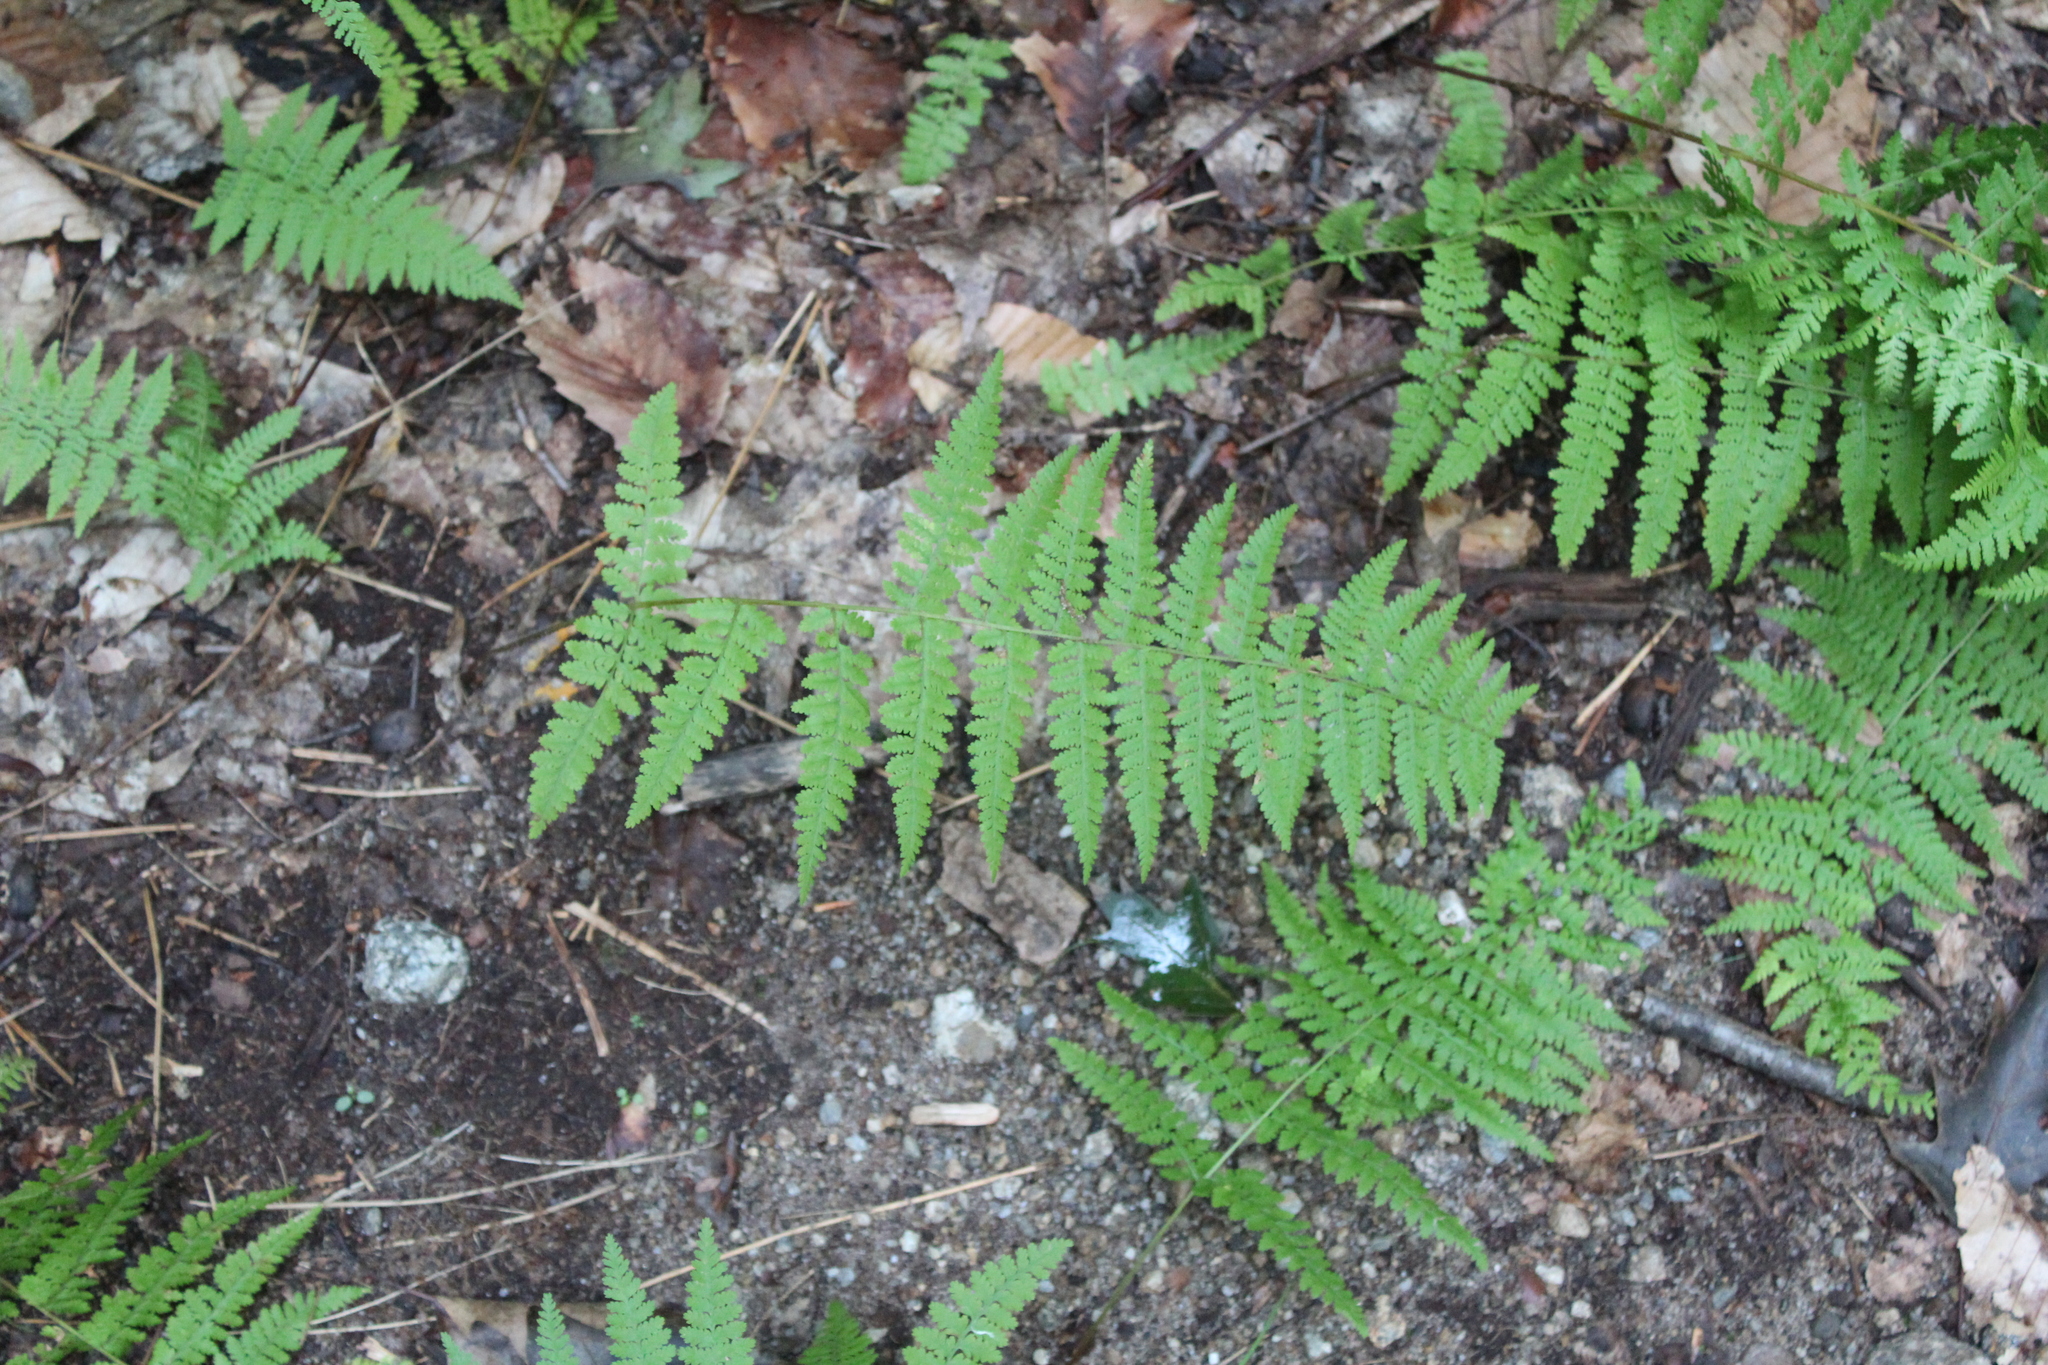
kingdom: Plantae
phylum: Tracheophyta
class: Polypodiopsida
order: Polypodiales
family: Dennstaedtiaceae
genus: Sitobolium
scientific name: Sitobolium punctilobum
